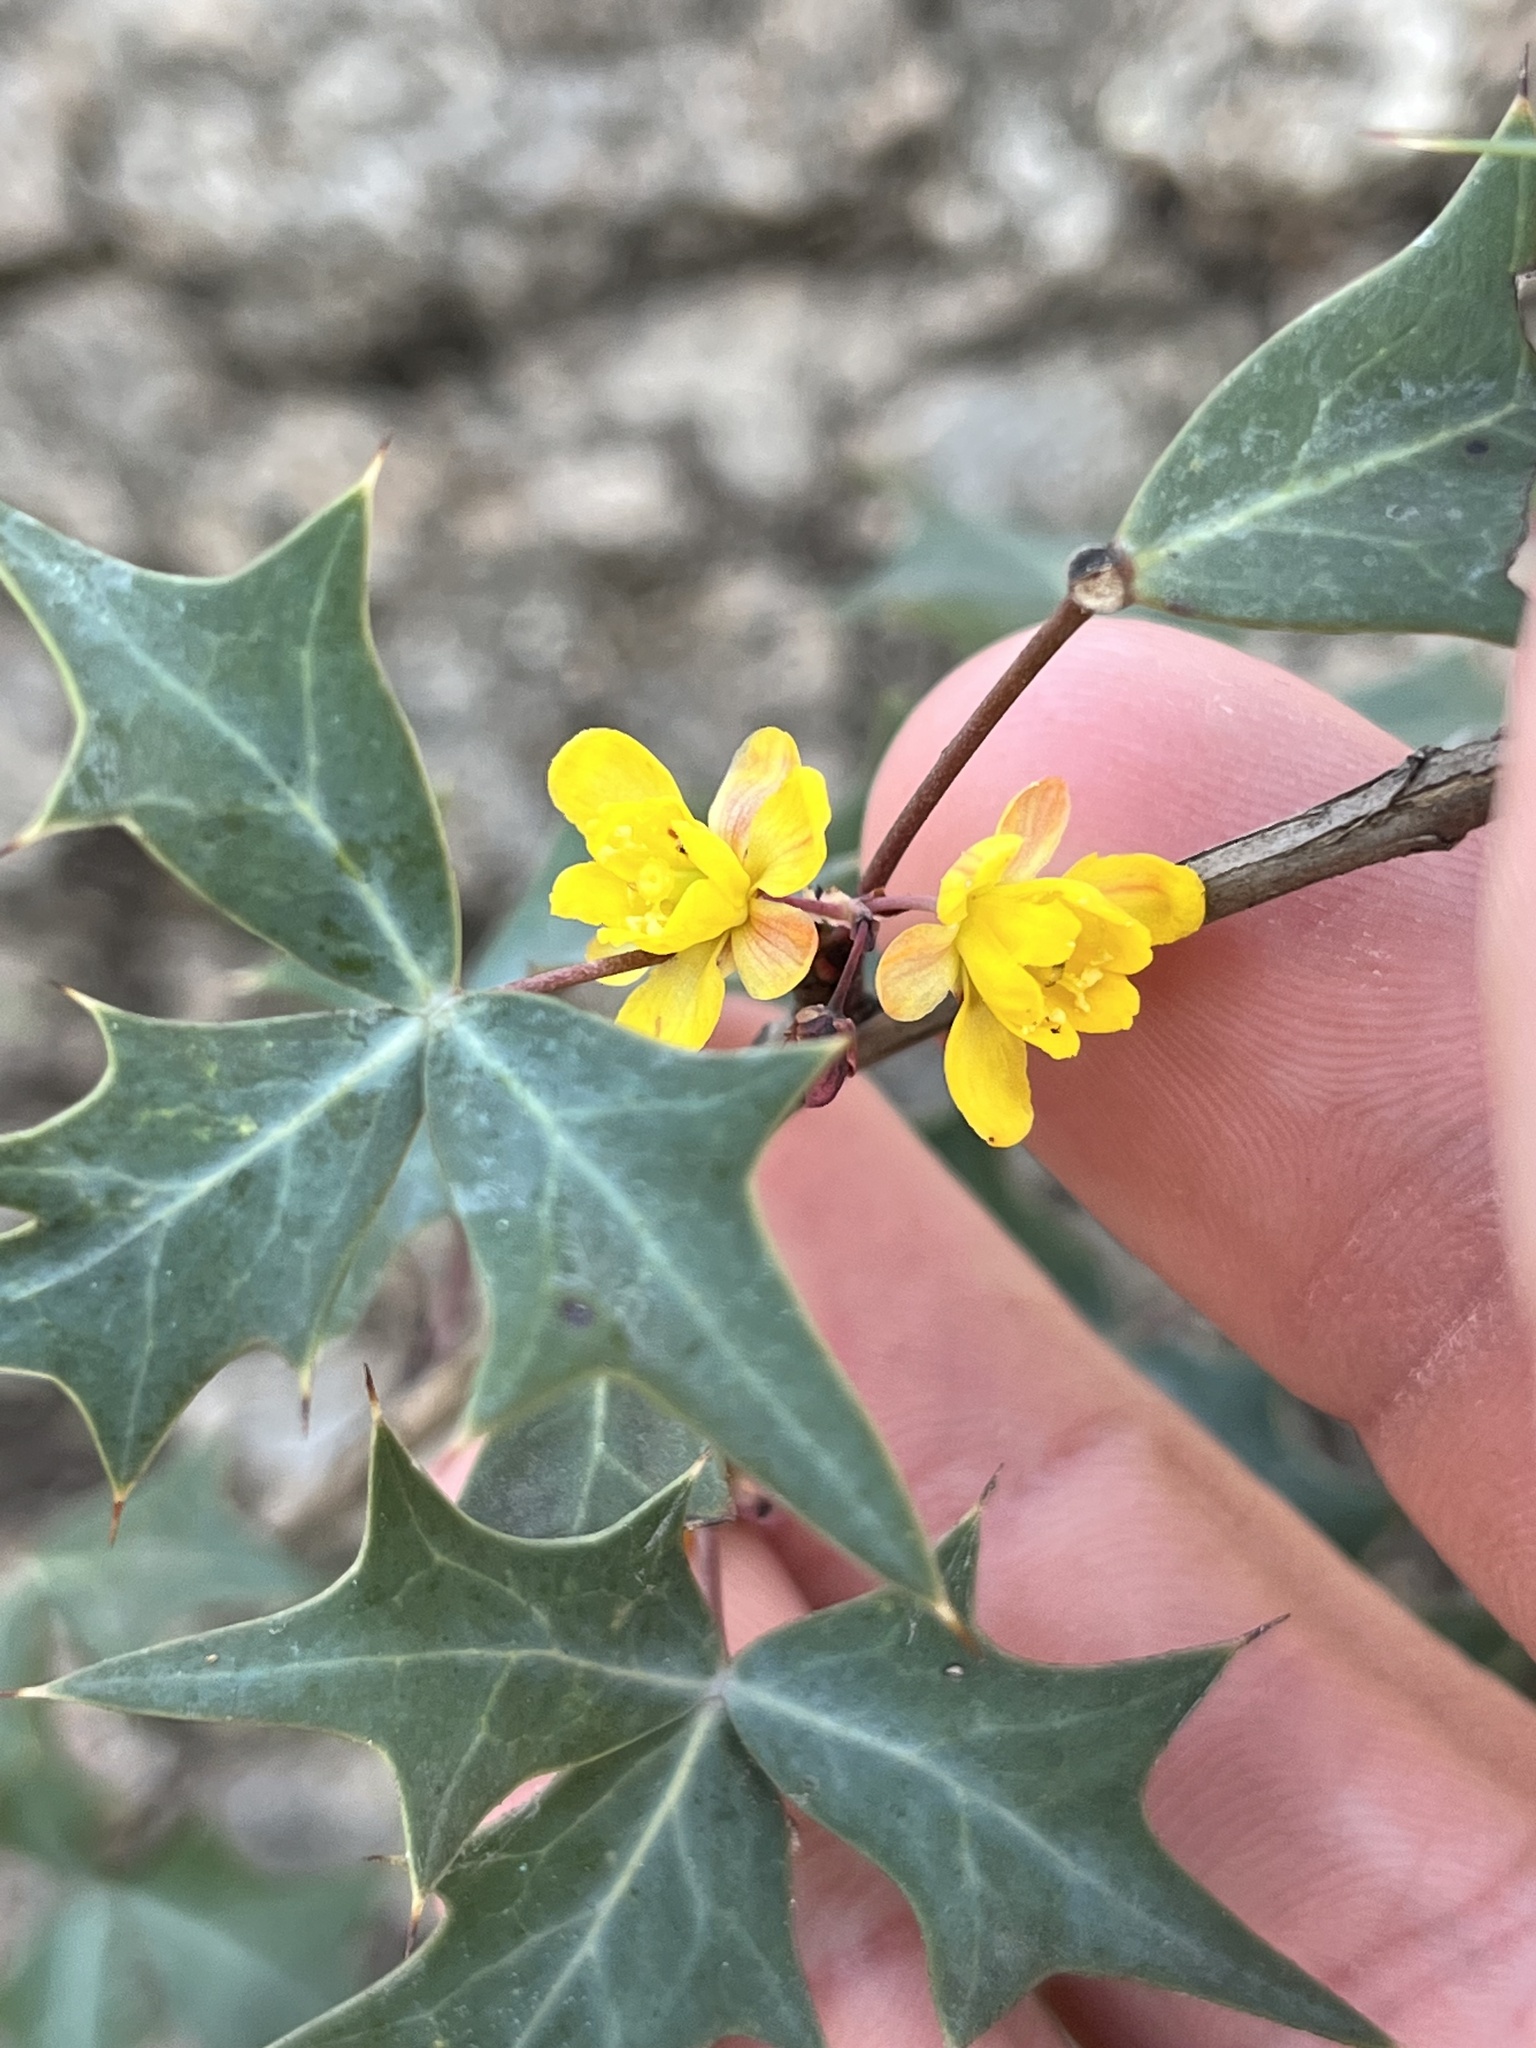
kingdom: Plantae
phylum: Tracheophyta
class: Magnoliopsida
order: Ranunculales
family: Berberidaceae
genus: Alloberberis
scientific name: Alloberberis trifoliolata
